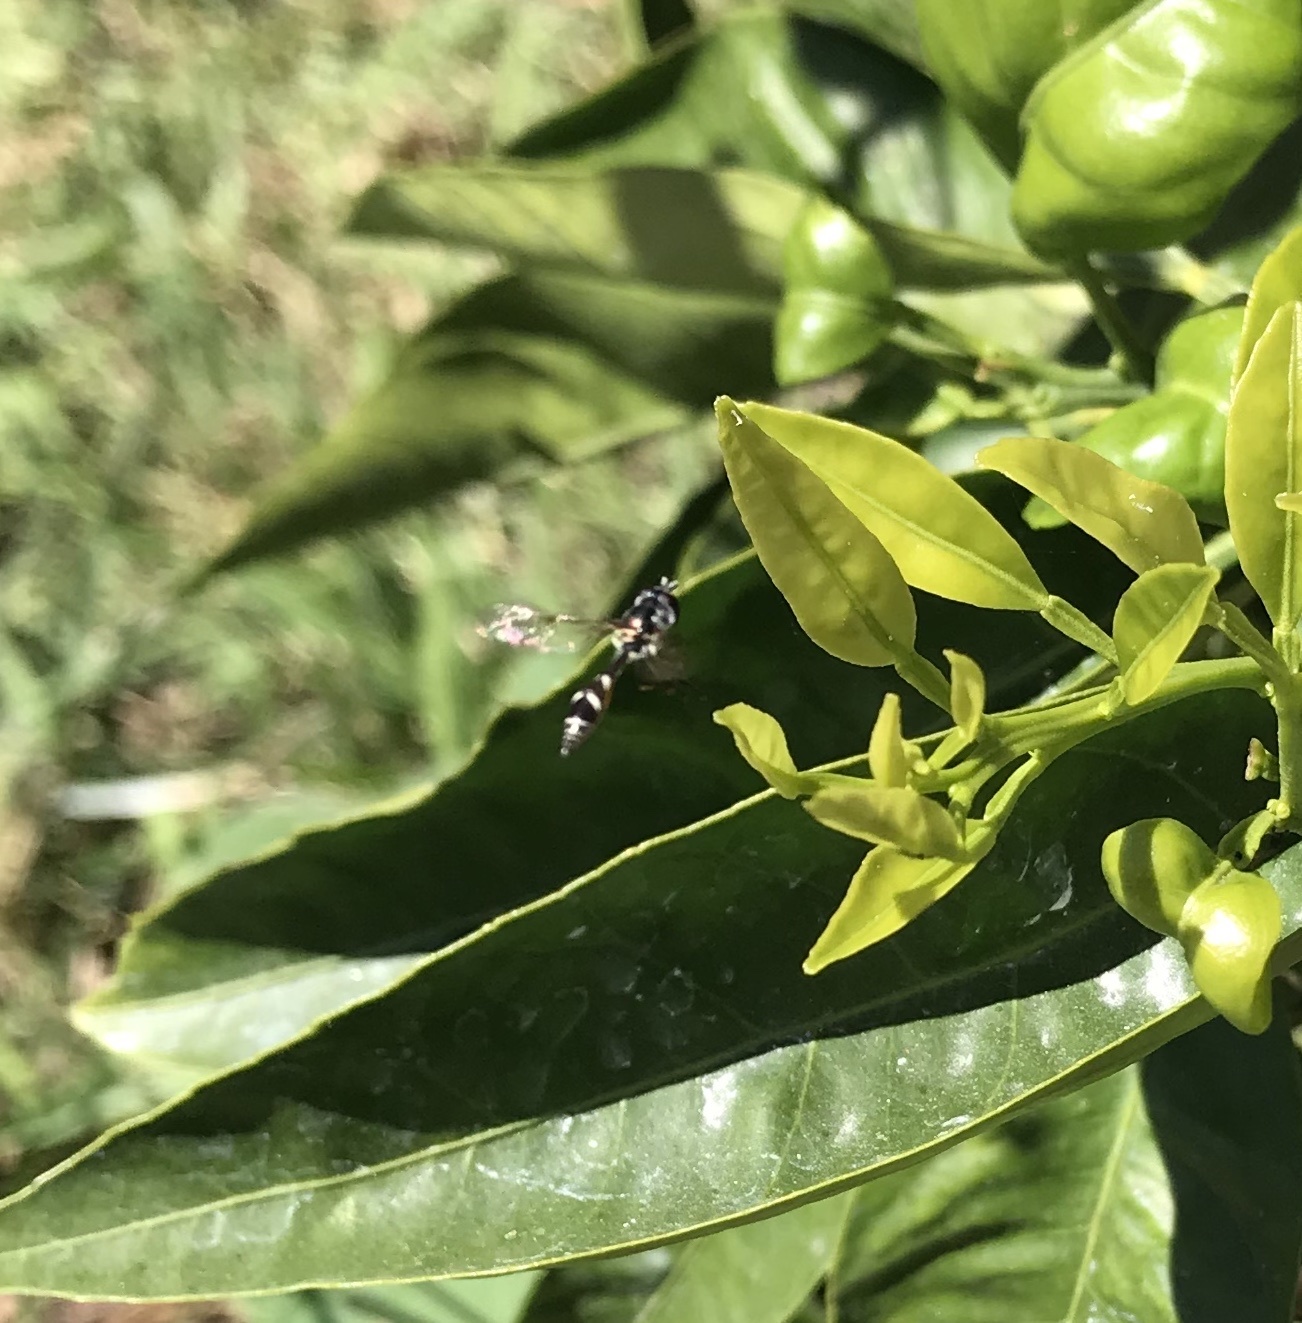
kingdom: Animalia
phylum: Arthropoda
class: Insecta
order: Diptera
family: Syrphidae
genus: Dioprosopa
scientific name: Dioprosopa clavatus
